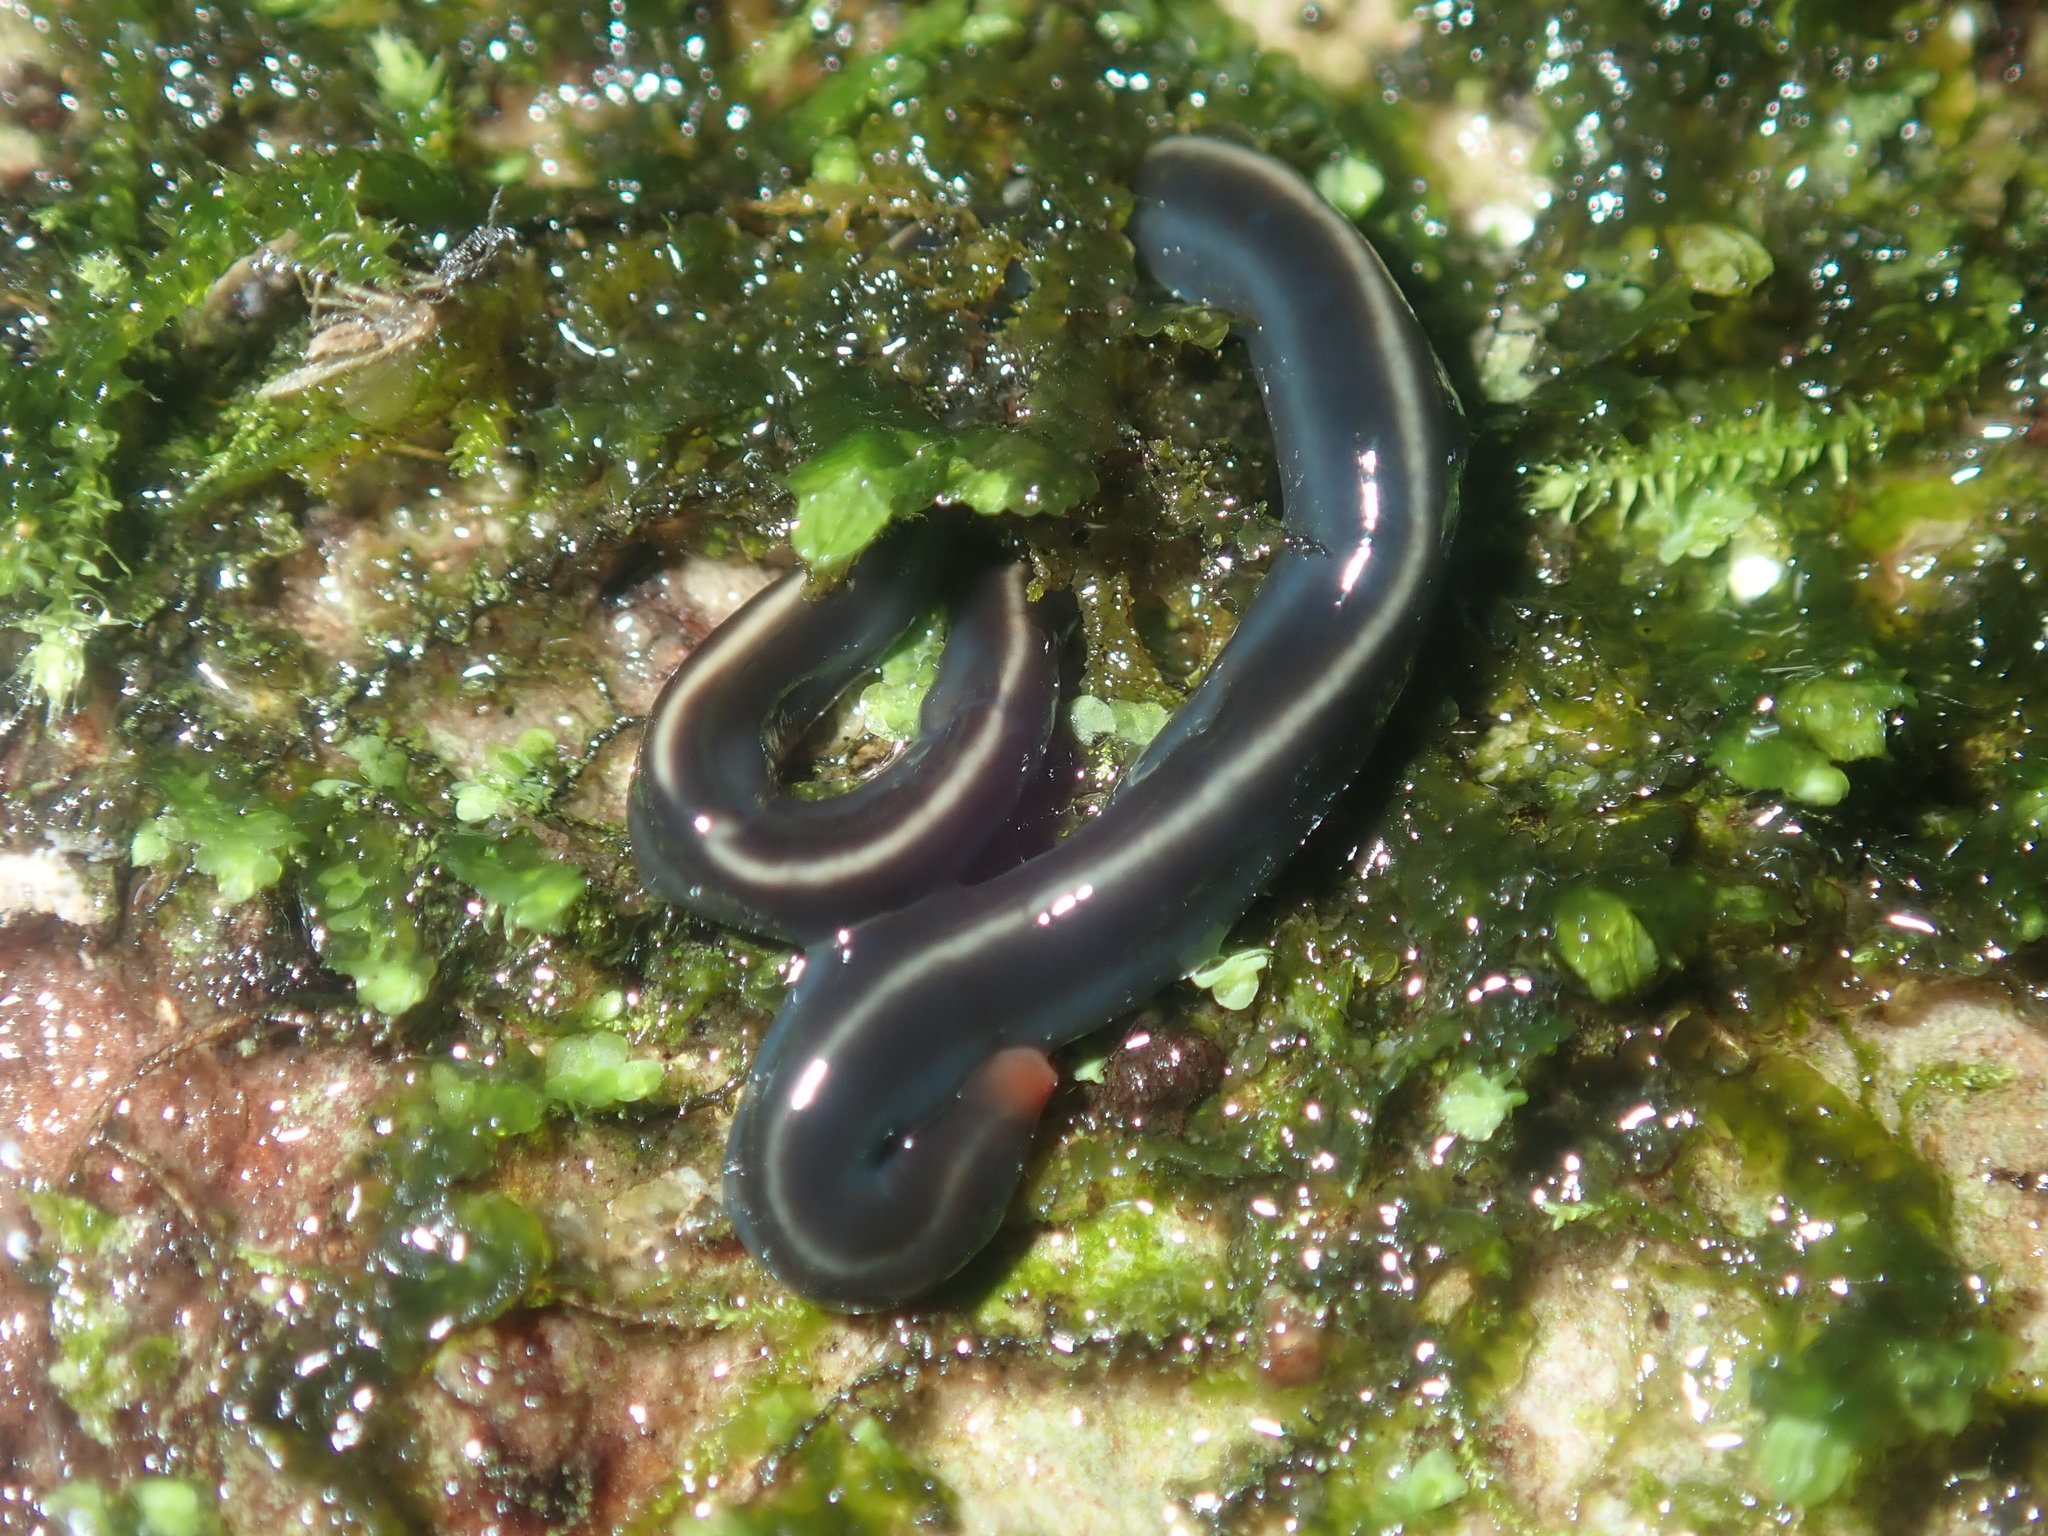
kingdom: Animalia
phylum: Platyhelminthes
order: Tricladida
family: Geoplanidae
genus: Caenoplana
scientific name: Caenoplana coerulea
